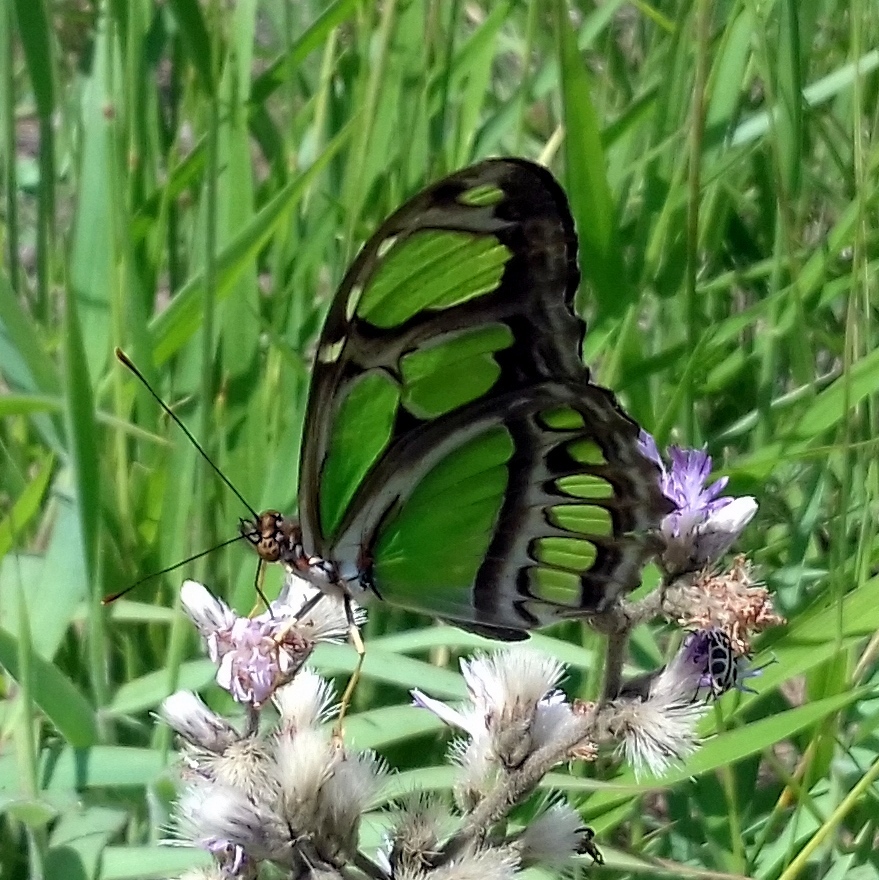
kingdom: Animalia
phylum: Arthropoda
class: Insecta
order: Lepidoptera
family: Nymphalidae
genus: Philaethria
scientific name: Philaethria dido
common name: Scarce bamboo page
